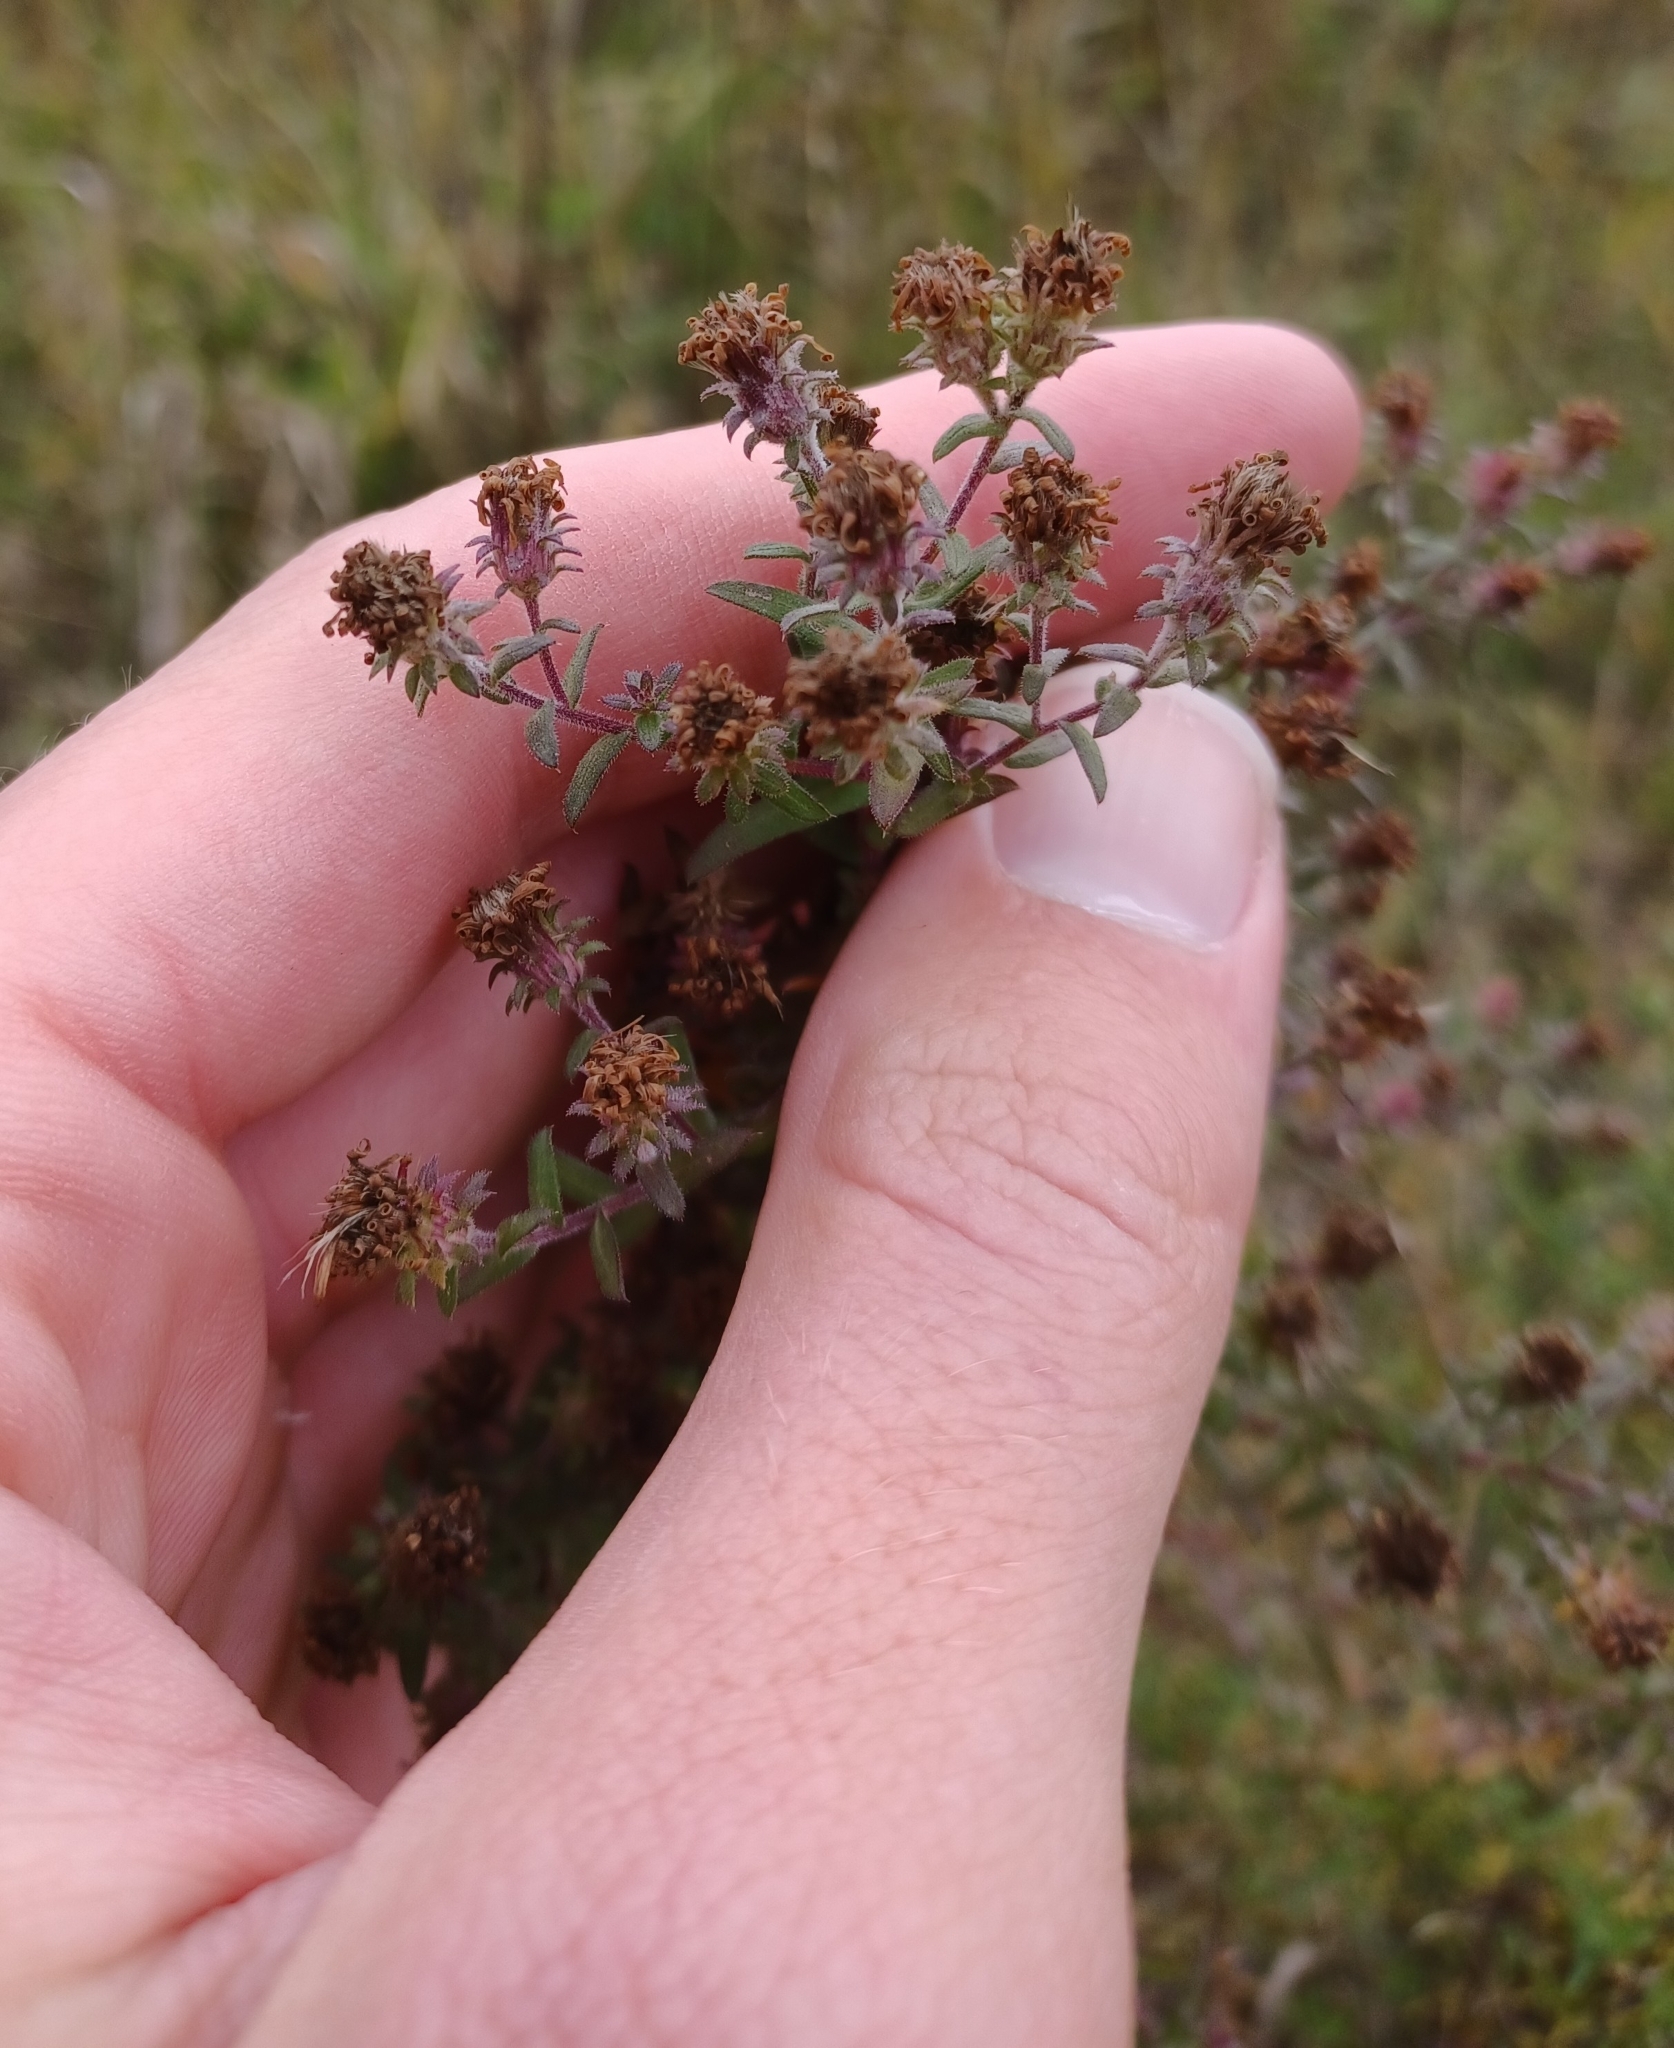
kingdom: Plantae
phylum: Tracheophyta
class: Magnoliopsida
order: Asterales
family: Asteraceae
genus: Symphyotrichum
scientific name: Symphyotrichum amethystinum
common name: Amethyst aster
